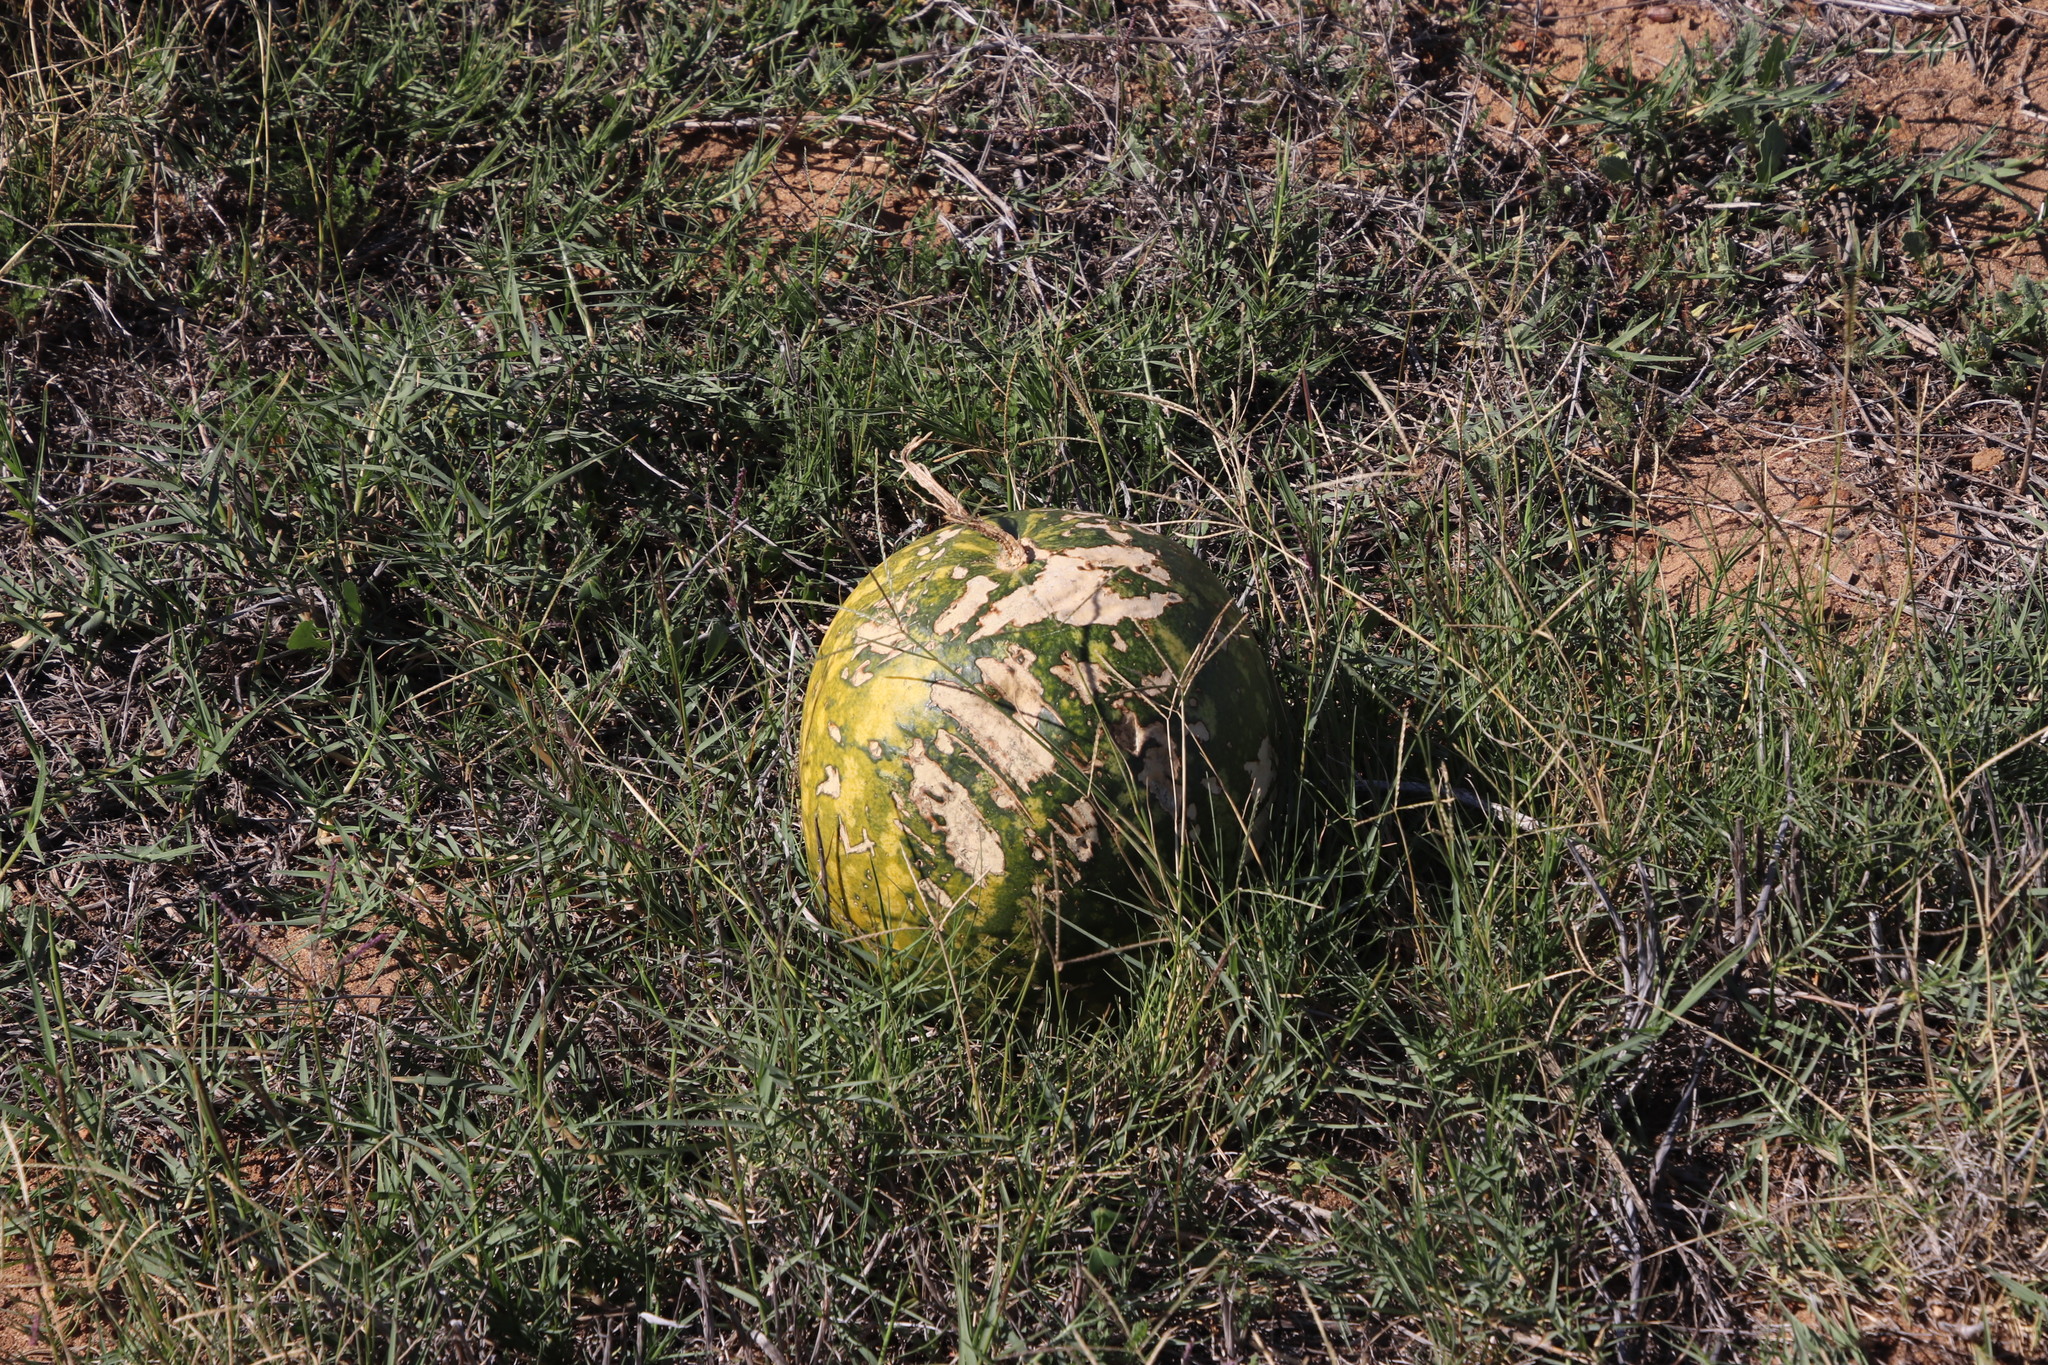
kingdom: Plantae
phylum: Tracheophyta
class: Magnoliopsida
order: Cucurbitales
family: Cucurbitaceae
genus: Citrullus
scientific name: Citrullus amarus
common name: Fodder-melon
